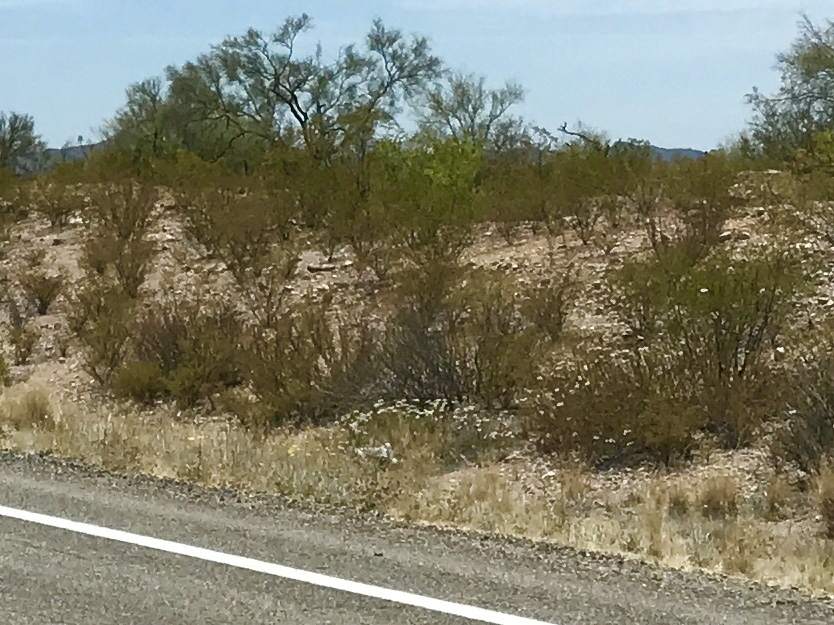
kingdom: Plantae
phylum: Tracheophyta
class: Magnoliopsida
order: Zygophyllales
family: Zygophyllaceae
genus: Larrea
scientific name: Larrea tridentata
